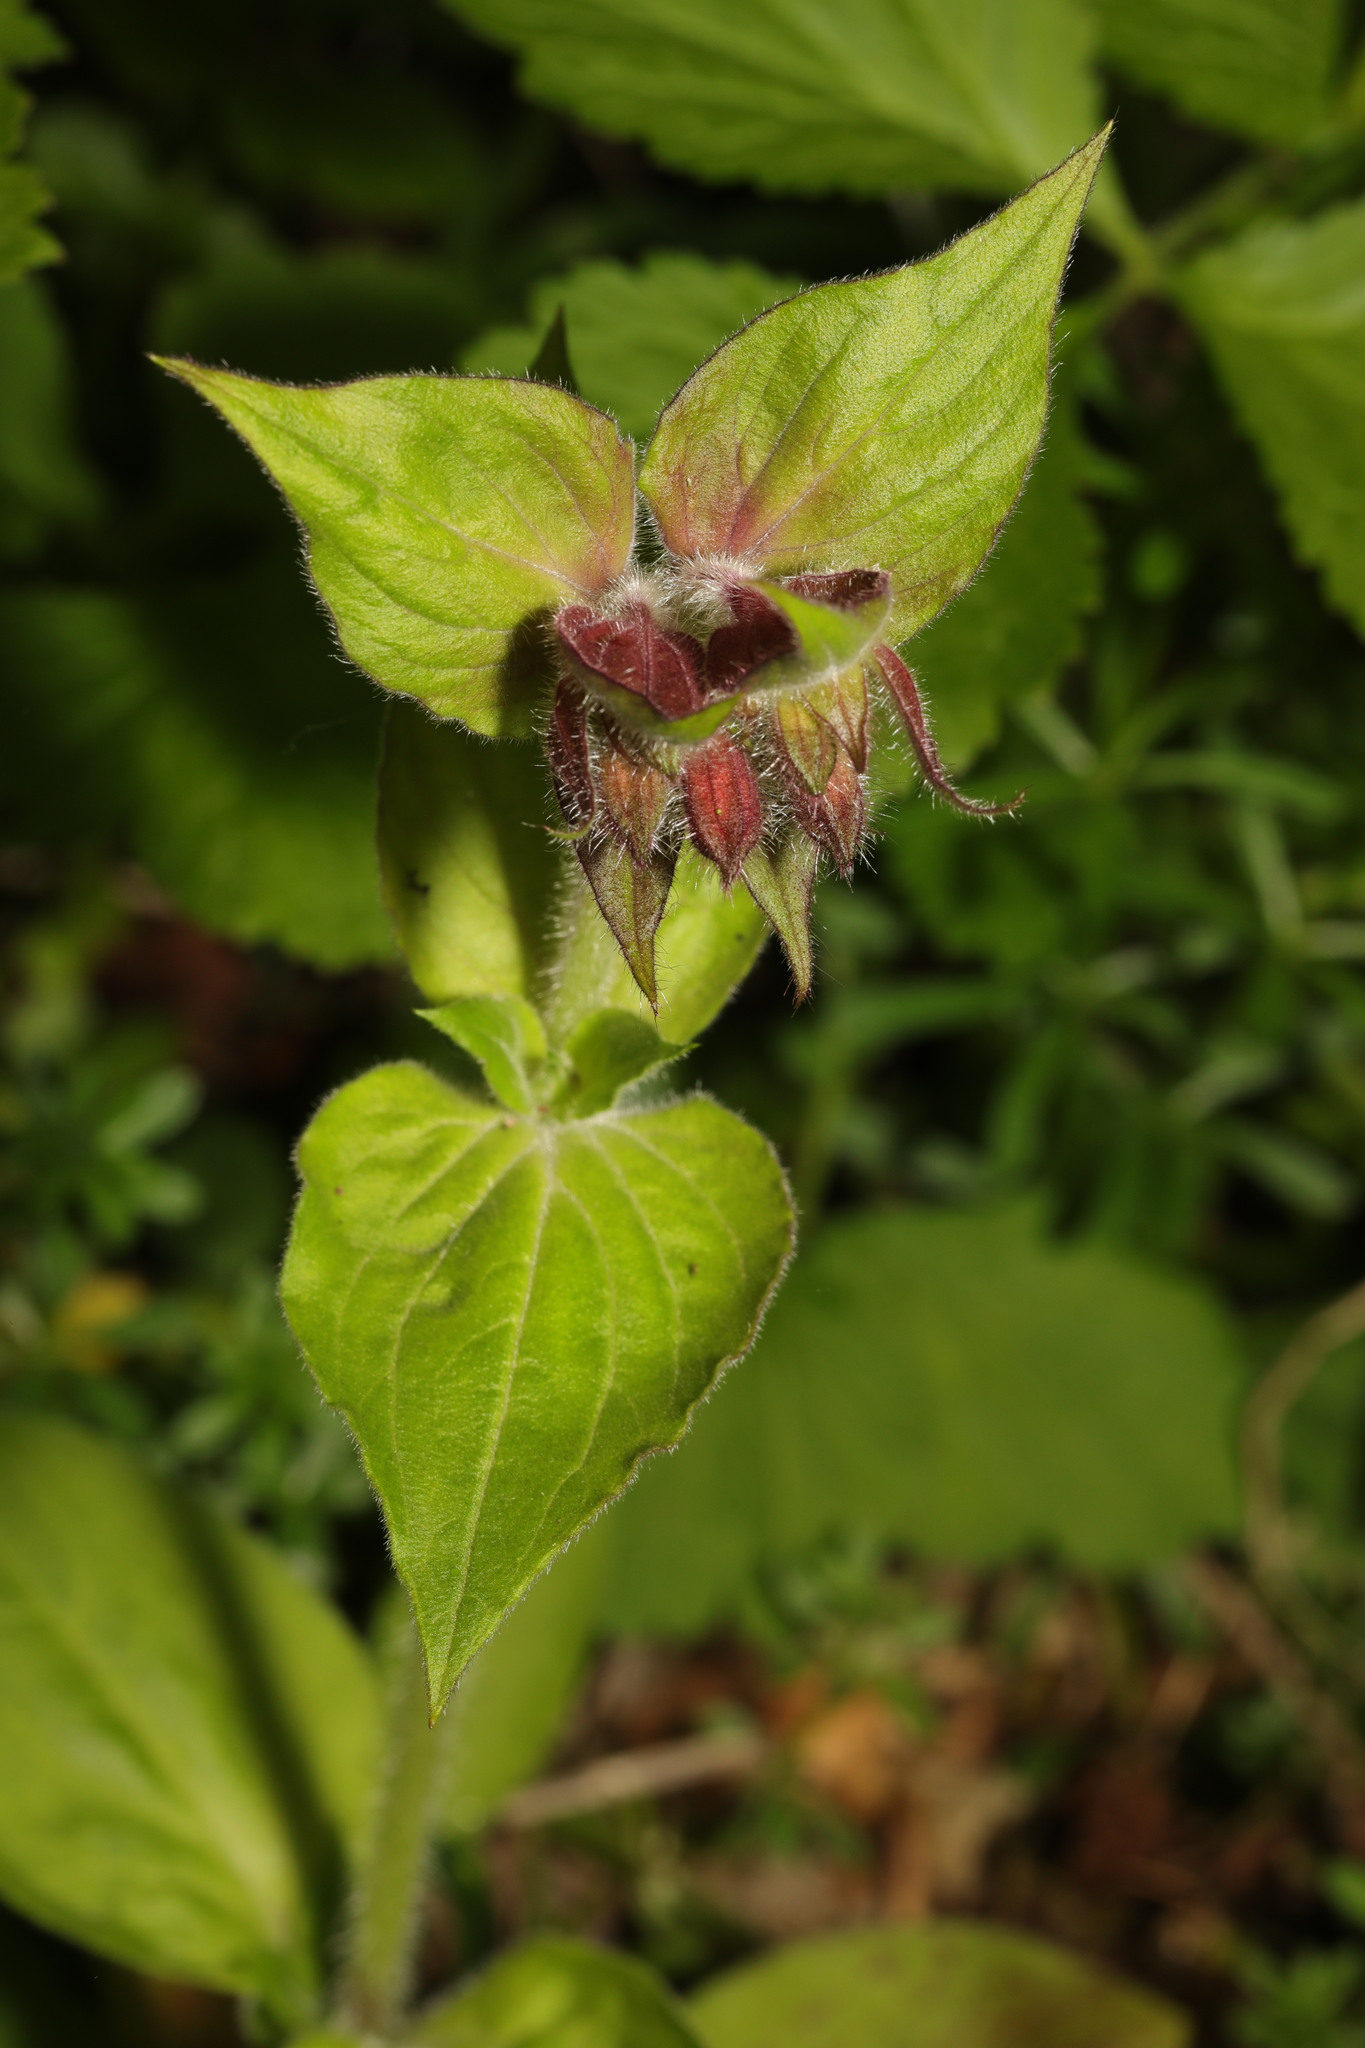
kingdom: Plantae
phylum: Tracheophyta
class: Magnoliopsida
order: Caryophyllales
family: Caryophyllaceae
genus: Silene
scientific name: Silene dioica
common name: Red campion
